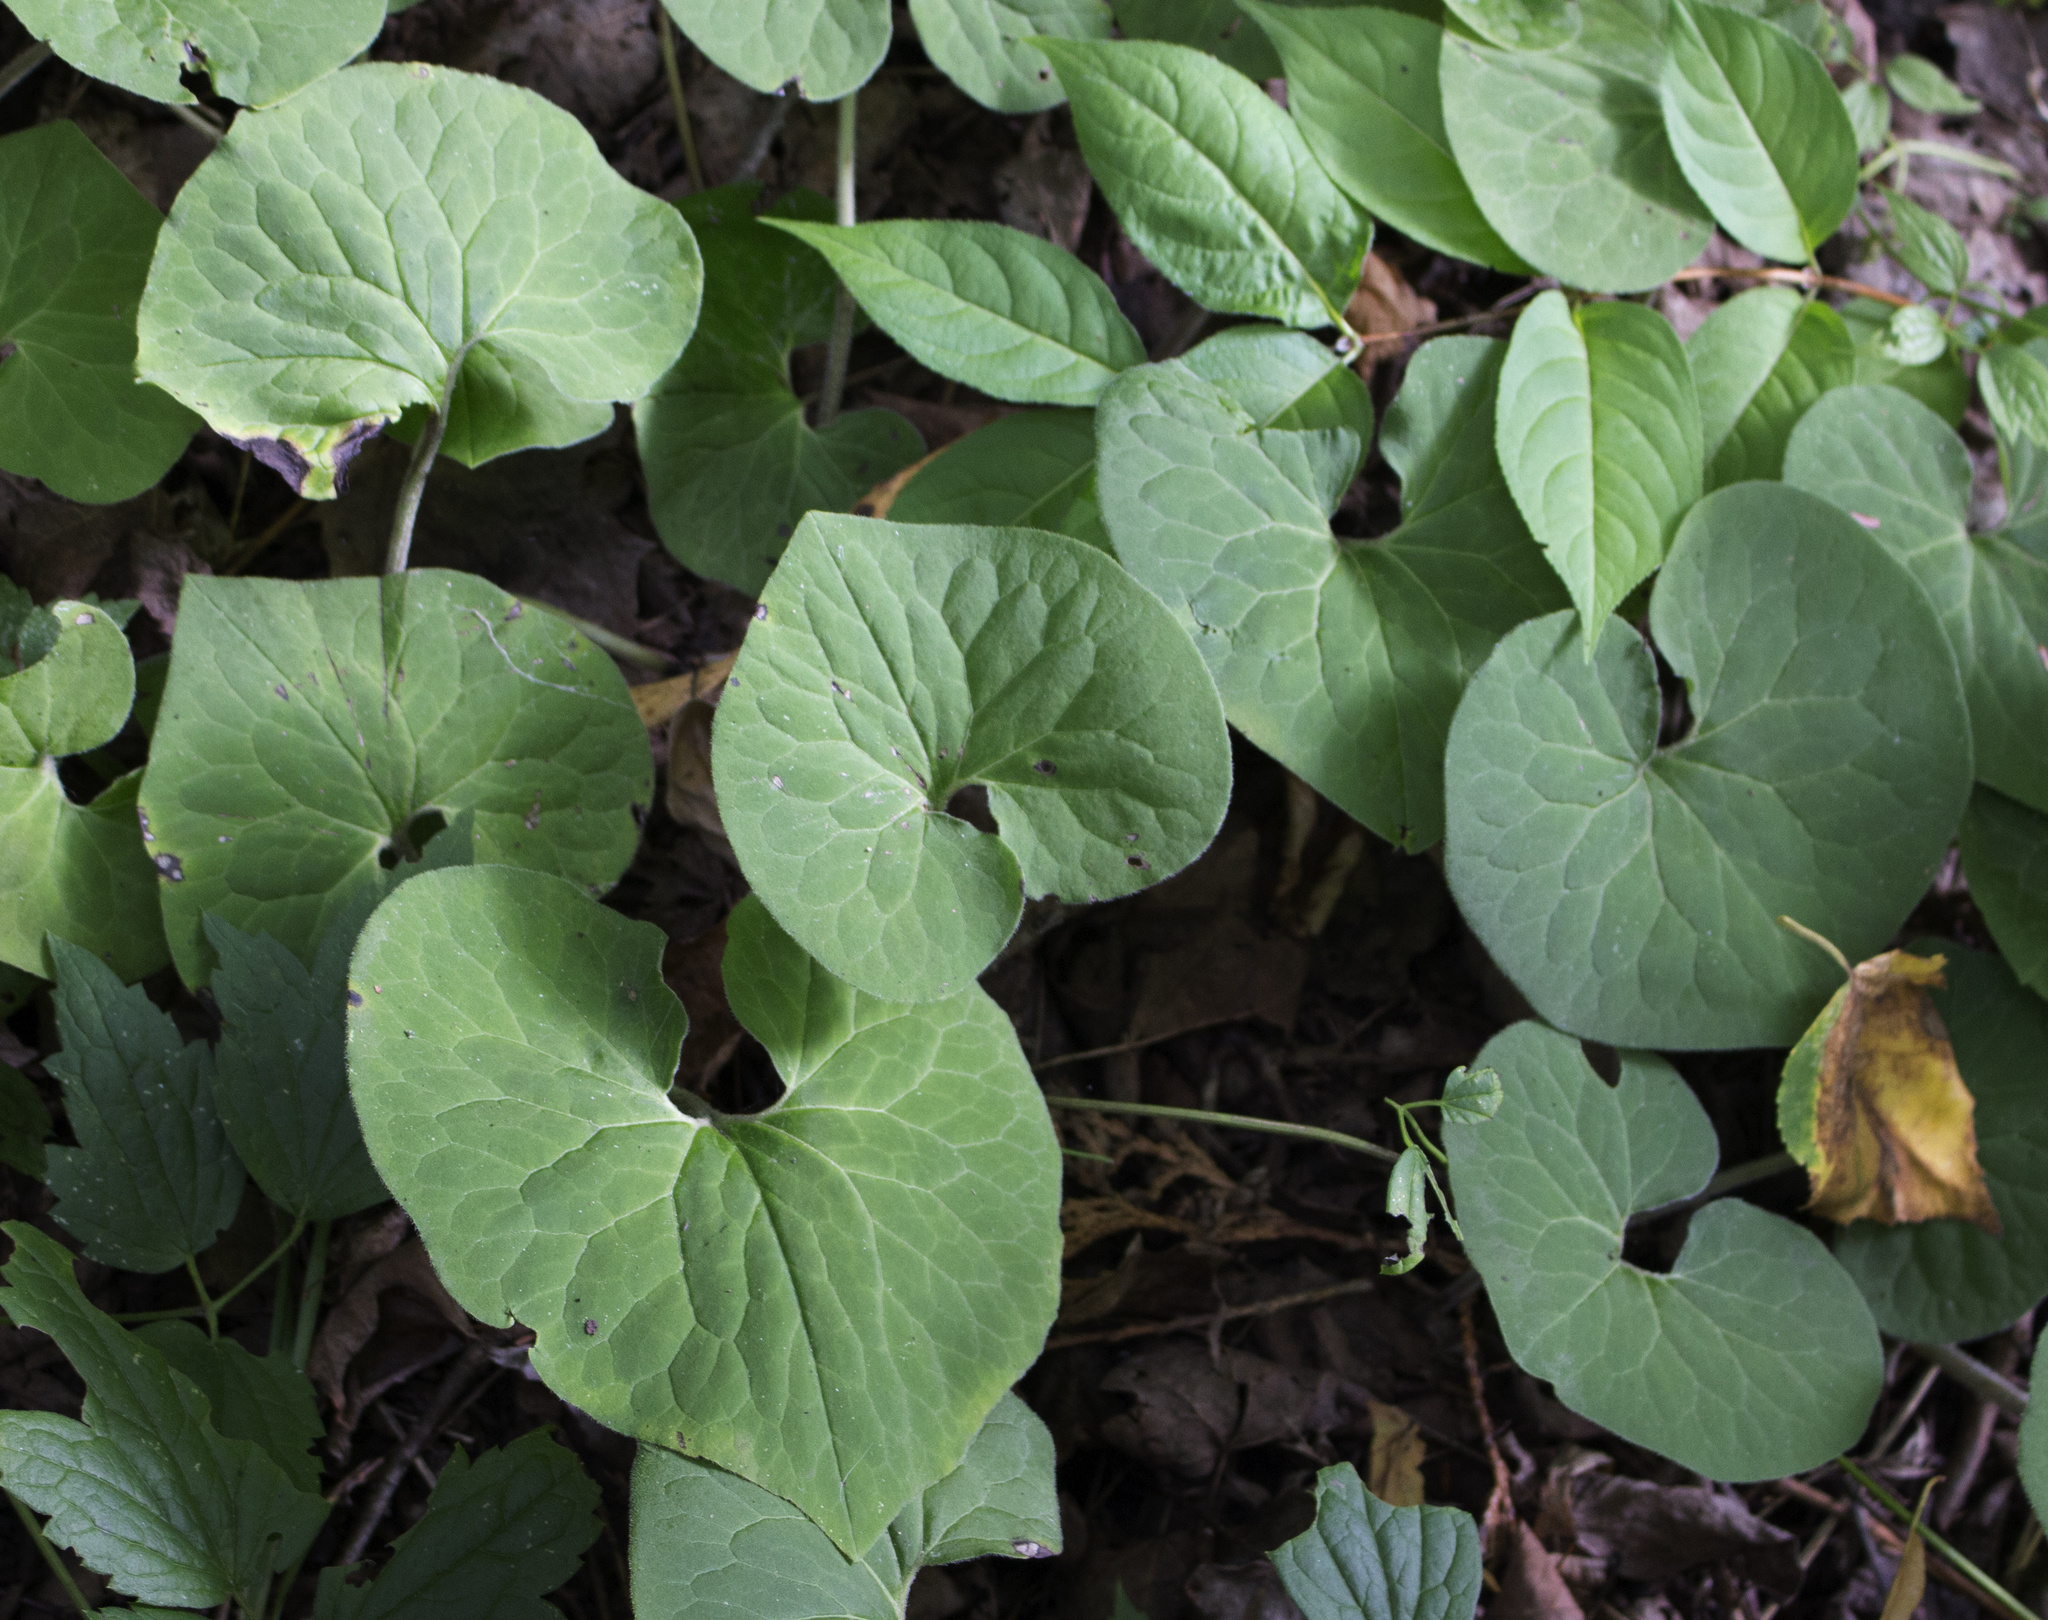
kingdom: Plantae
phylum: Tracheophyta
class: Magnoliopsida
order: Piperales
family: Aristolochiaceae
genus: Asarum
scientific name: Asarum canadense
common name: Wild ginger
